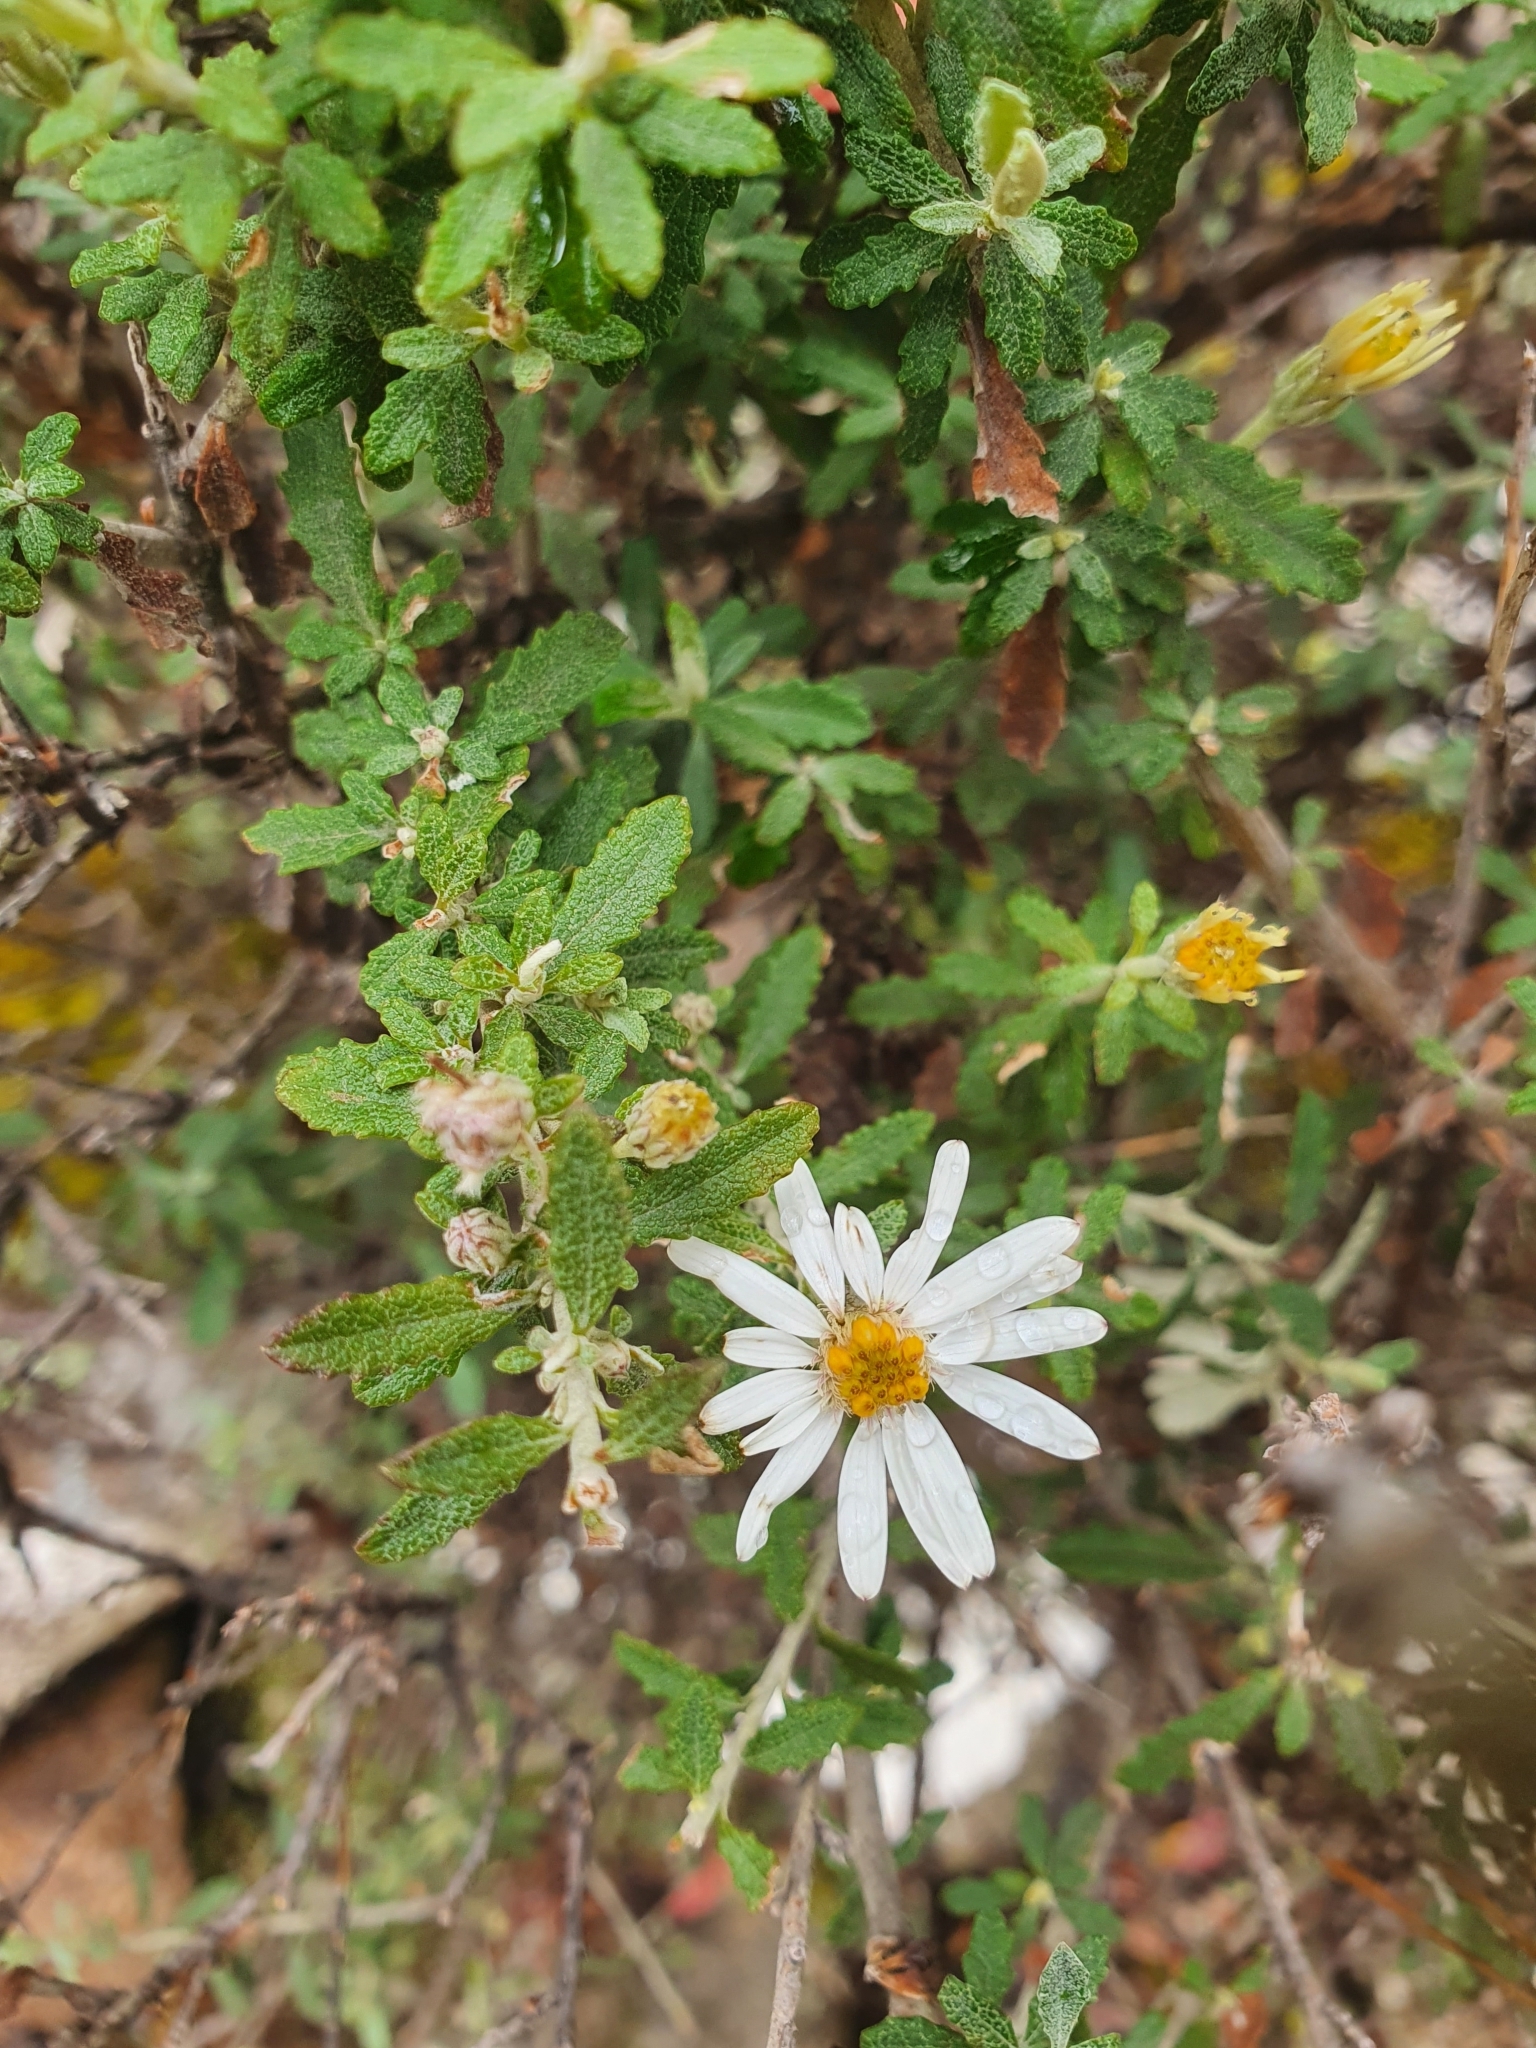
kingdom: Plantae
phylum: Tracheophyta
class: Magnoliopsida
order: Asterales
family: Asteraceae
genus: Olearia
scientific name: Olearia phlogopappa
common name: Alpine daisybush
